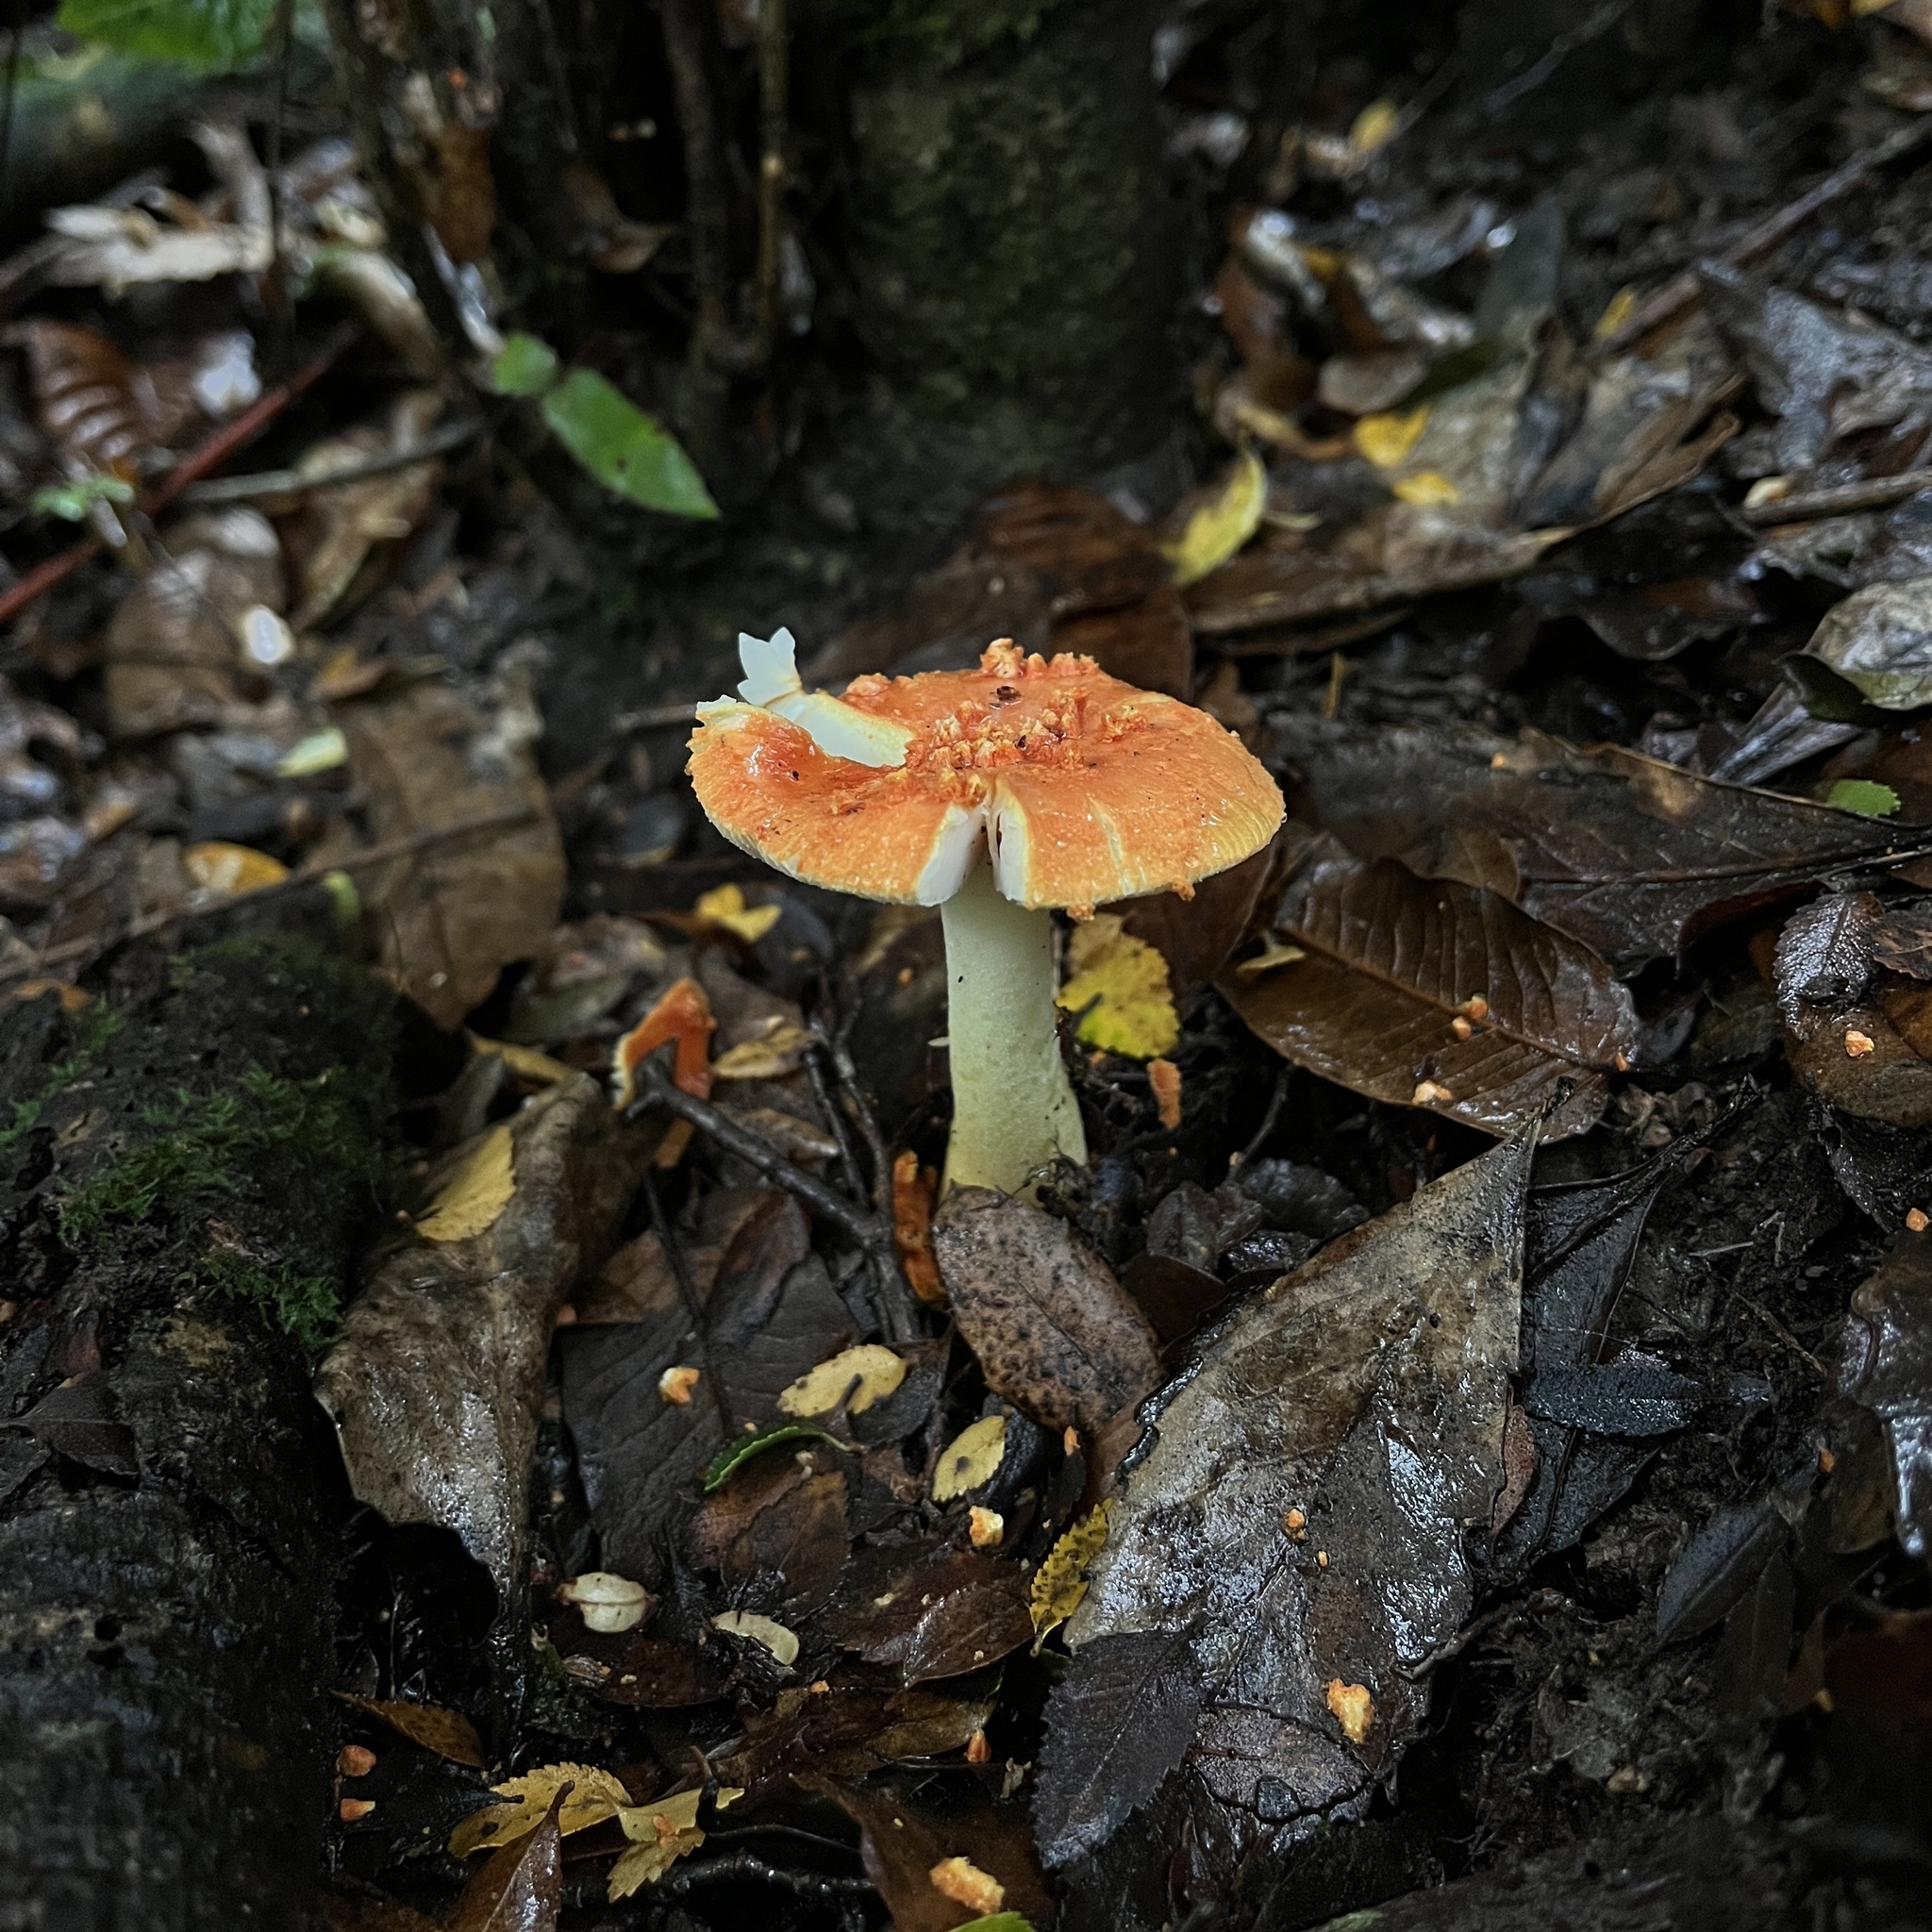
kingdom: Fungi
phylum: Basidiomycota
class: Agaricomycetes
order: Agaricales
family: Amanitaceae
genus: Amanita
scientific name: Amanita aurantiovelata
